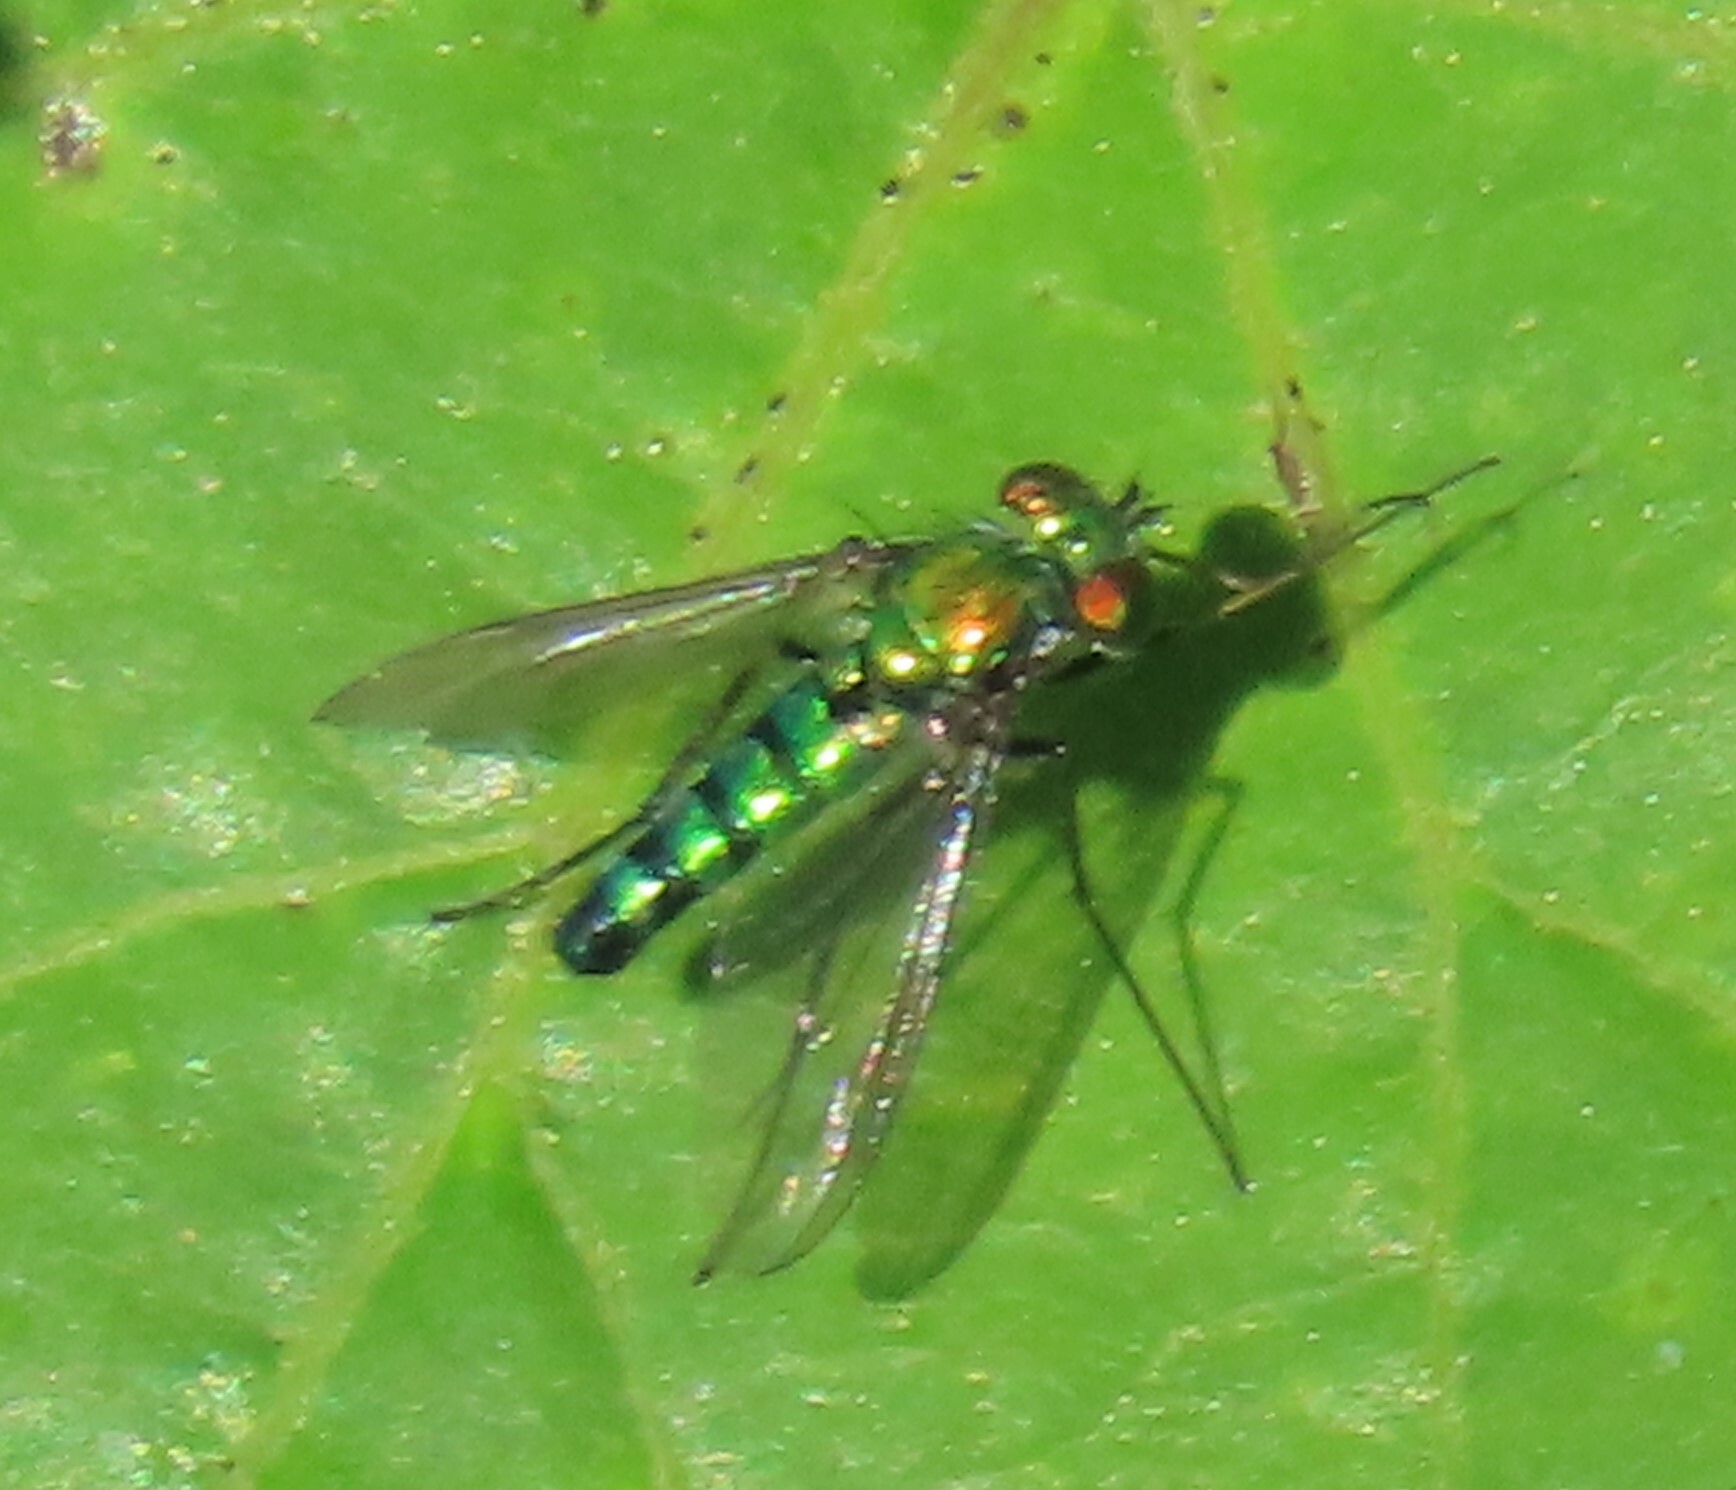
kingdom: Animalia
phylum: Arthropoda
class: Insecta
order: Diptera
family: Dolichopodidae
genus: Condylostylus
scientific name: Condylostylus longicornis
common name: Long-legged fly
